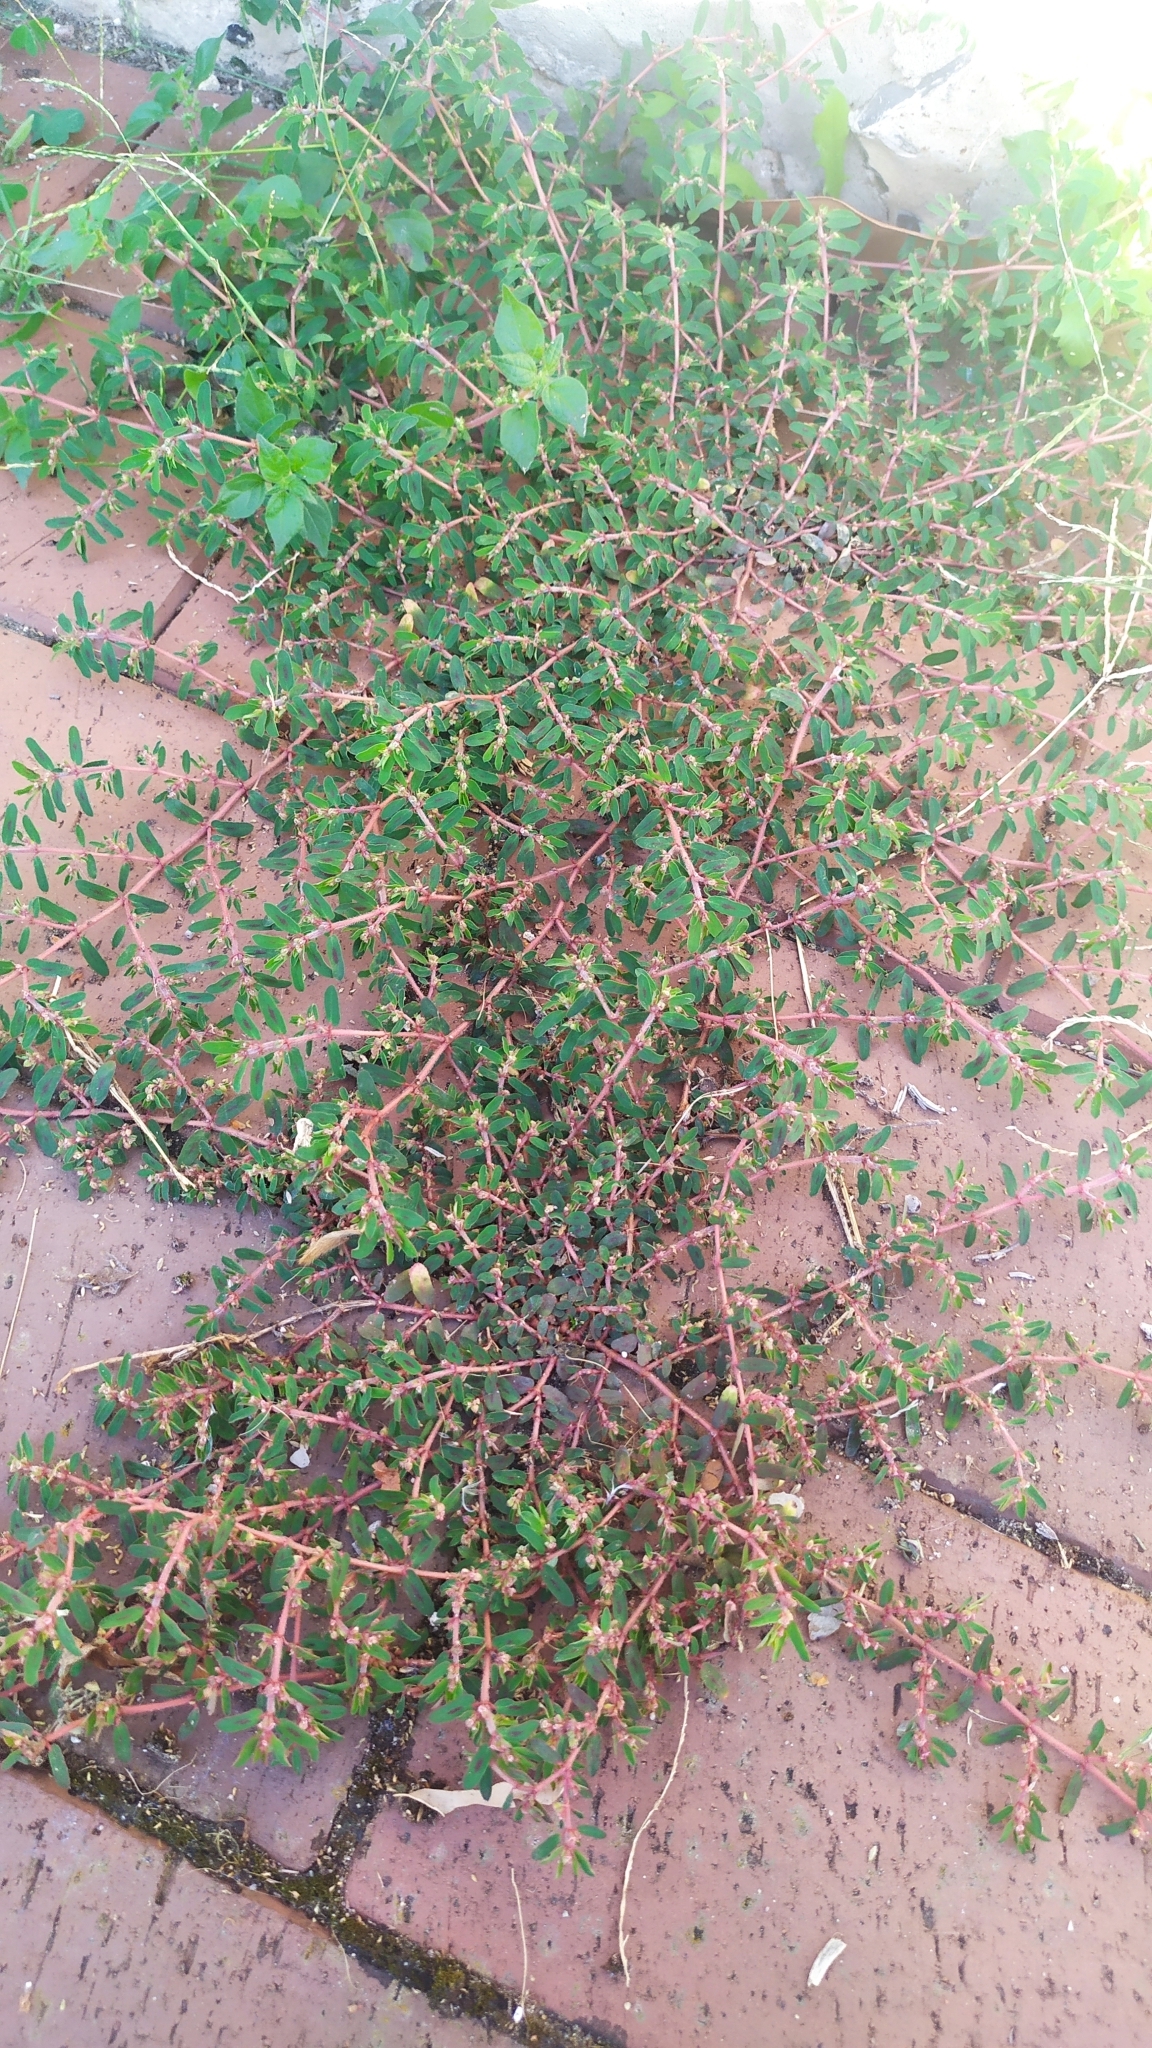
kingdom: Plantae
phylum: Tracheophyta
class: Magnoliopsida
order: Malpighiales
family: Euphorbiaceae
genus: Euphorbia
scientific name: Euphorbia maculata
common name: Spotted spurge
